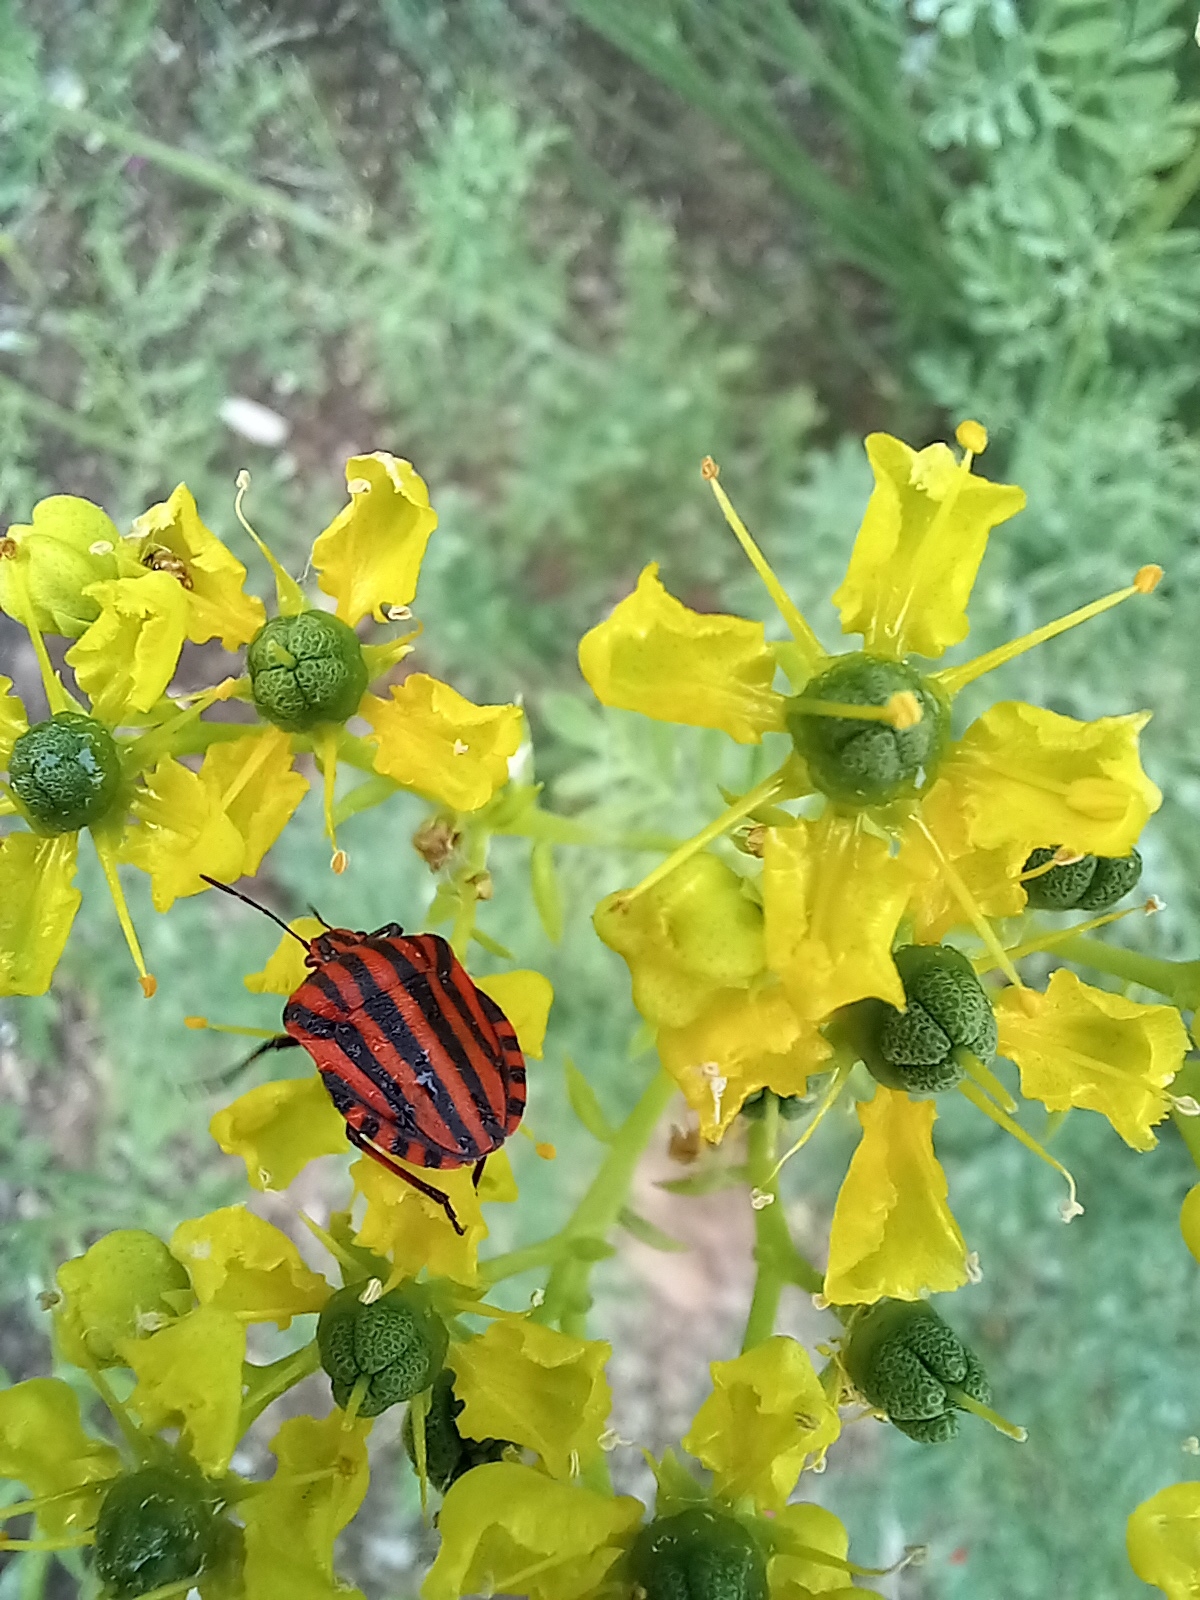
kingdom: Animalia
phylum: Arthropoda
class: Insecta
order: Hemiptera
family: Pentatomidae
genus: Graphosoma
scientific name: Graphosoma italicum
